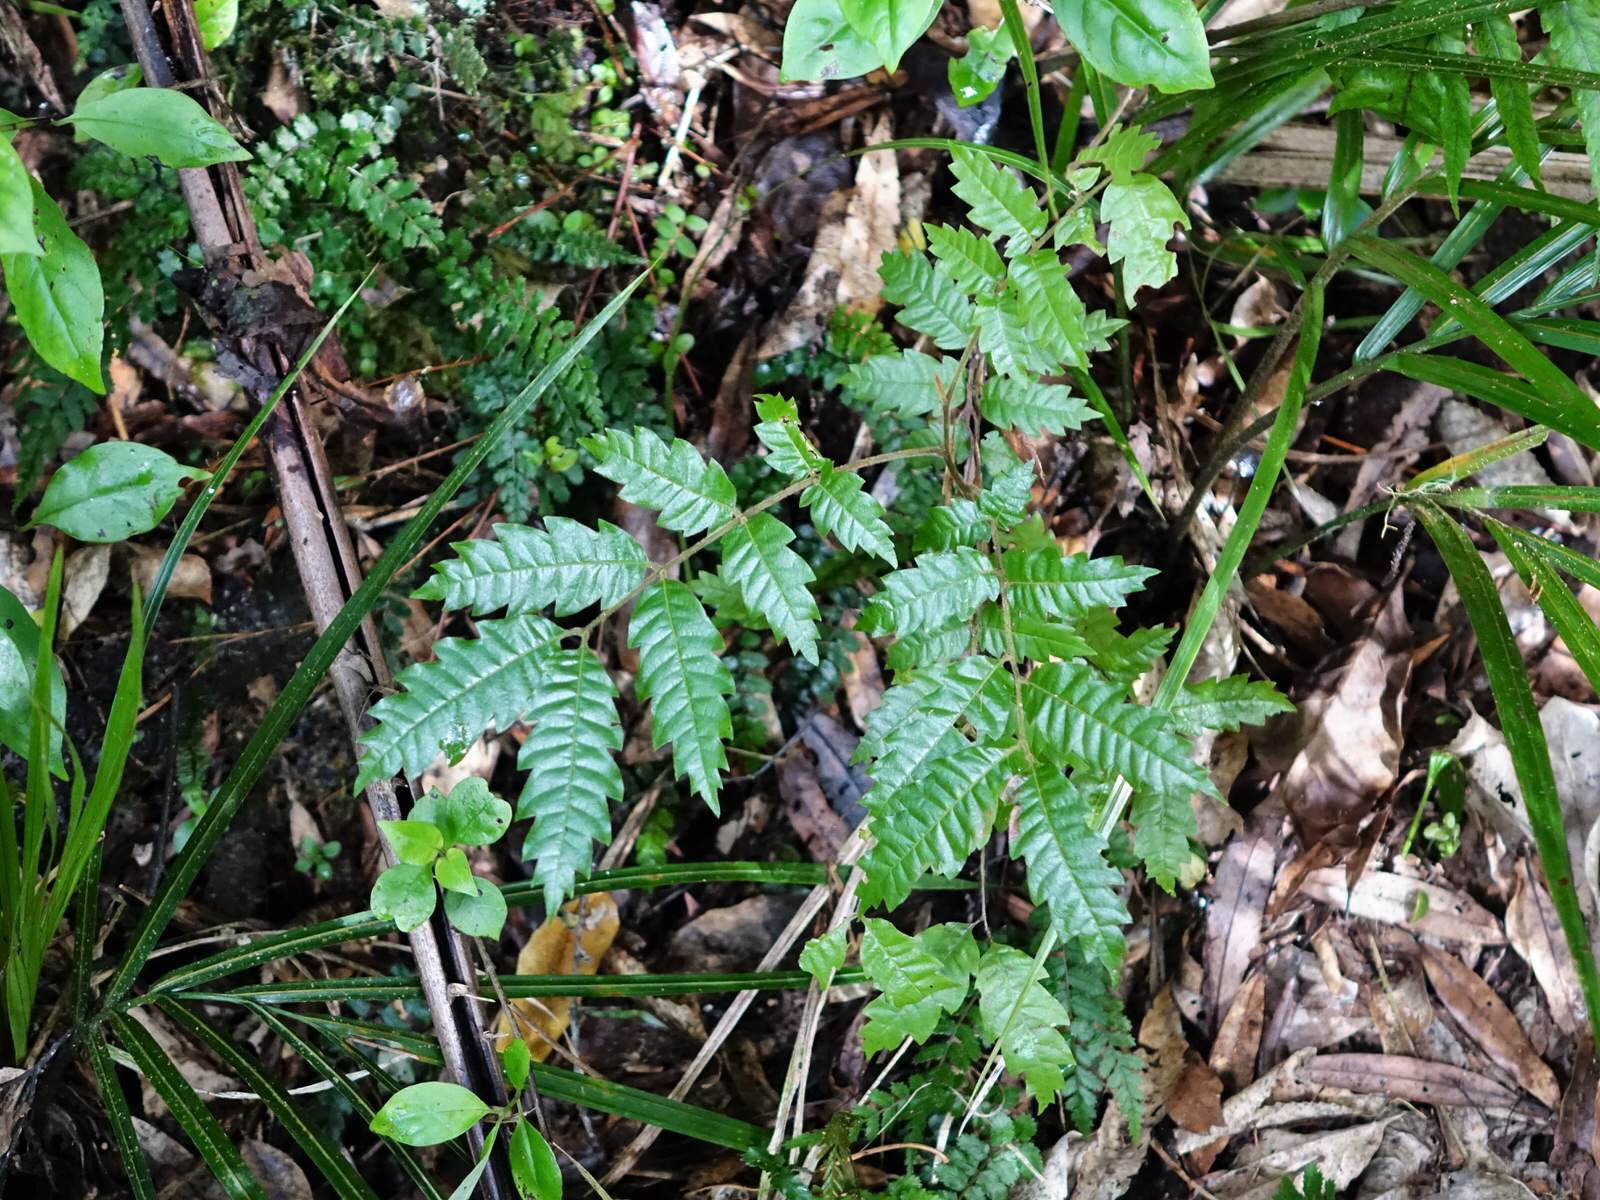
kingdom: Plantae
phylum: Tracheophyta
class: Magnoliopsida
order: Sapindales
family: Sapindaceae
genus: Alectryon
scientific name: Alectryon excelsus
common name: Three kings titoki
